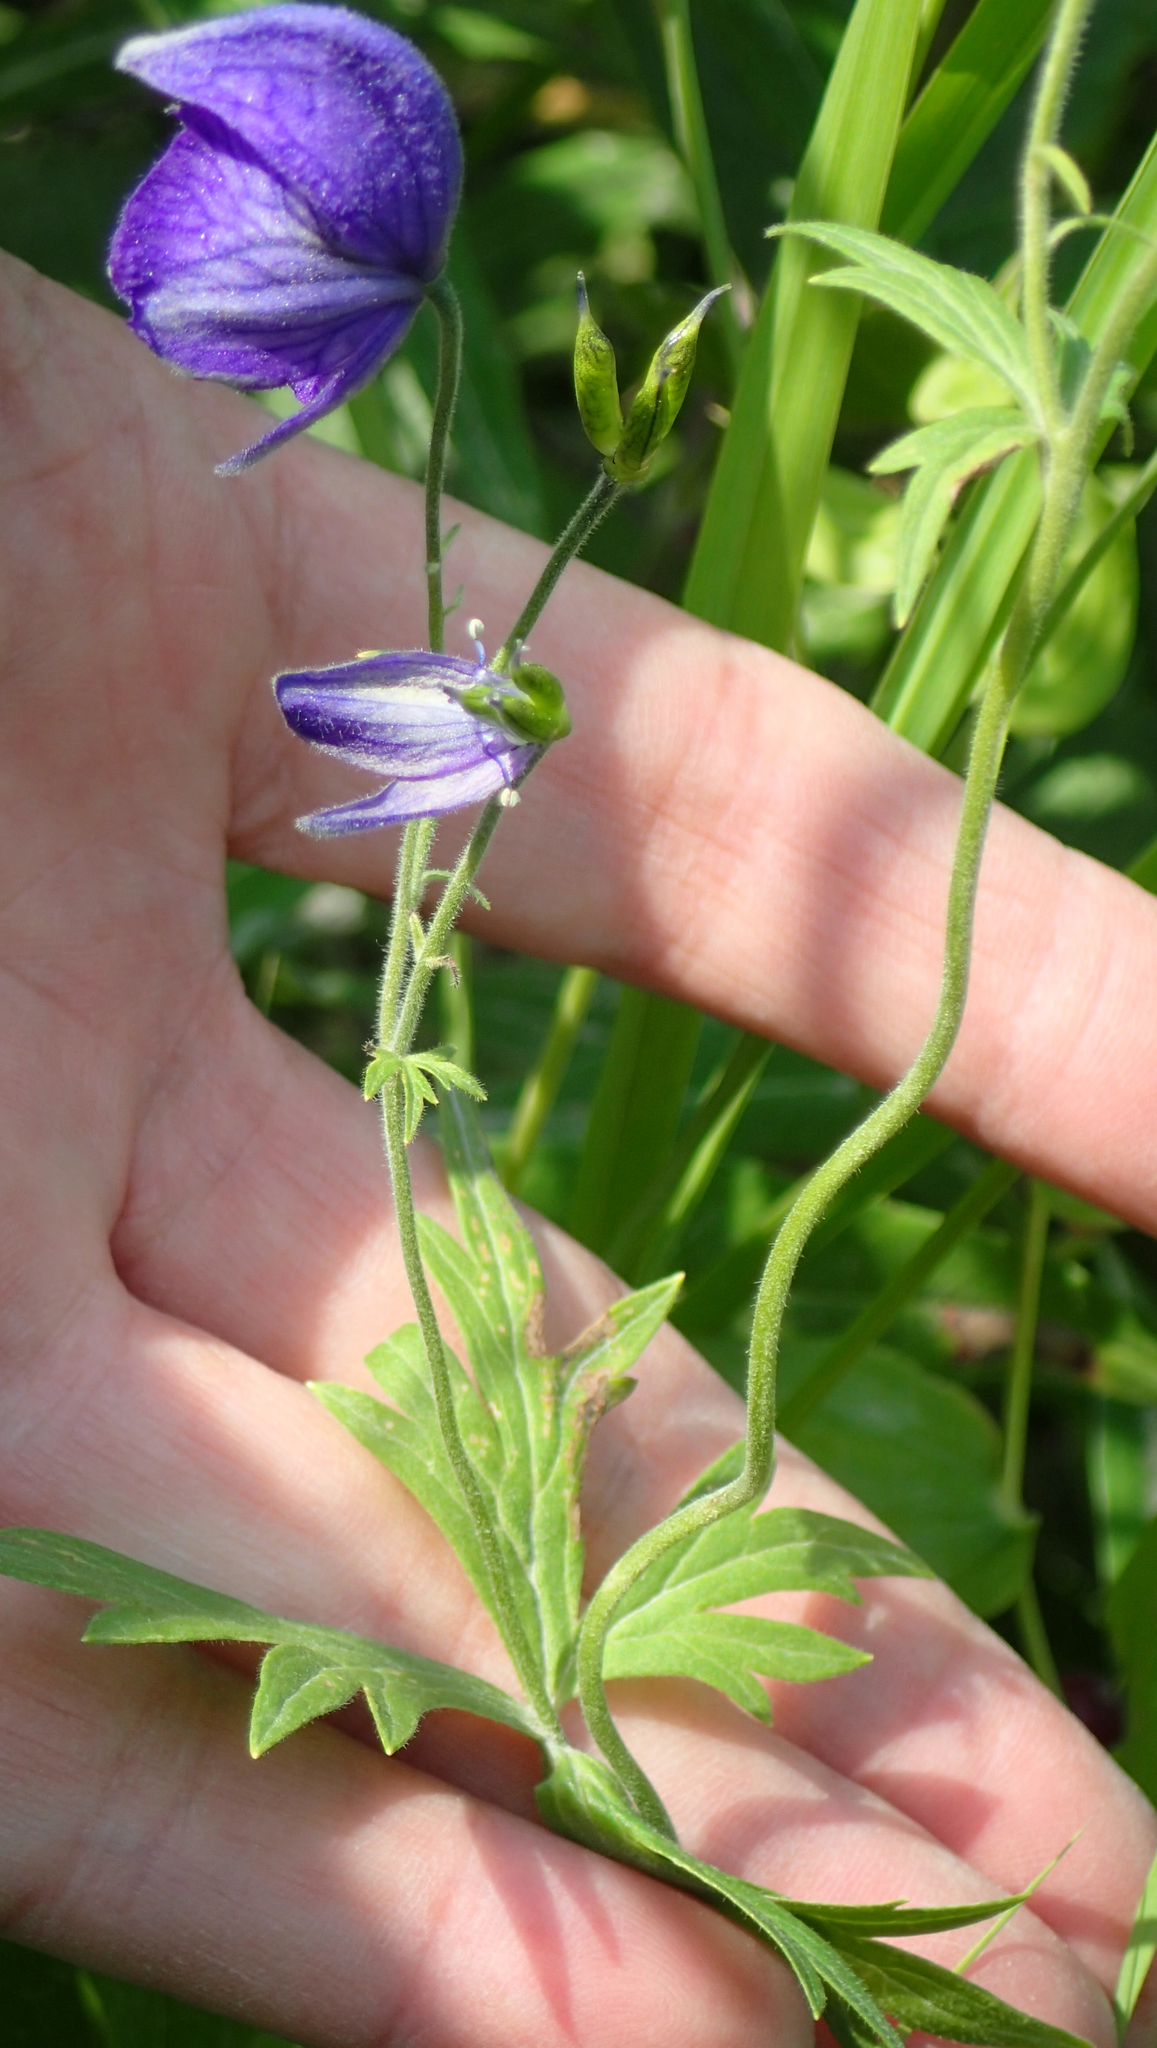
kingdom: Plantae
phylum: Tracheophyta
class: Magnoliopsida
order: Ranunculales
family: Ranunculaceae
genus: Aconitum
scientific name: Aconitum delphiniifolium
